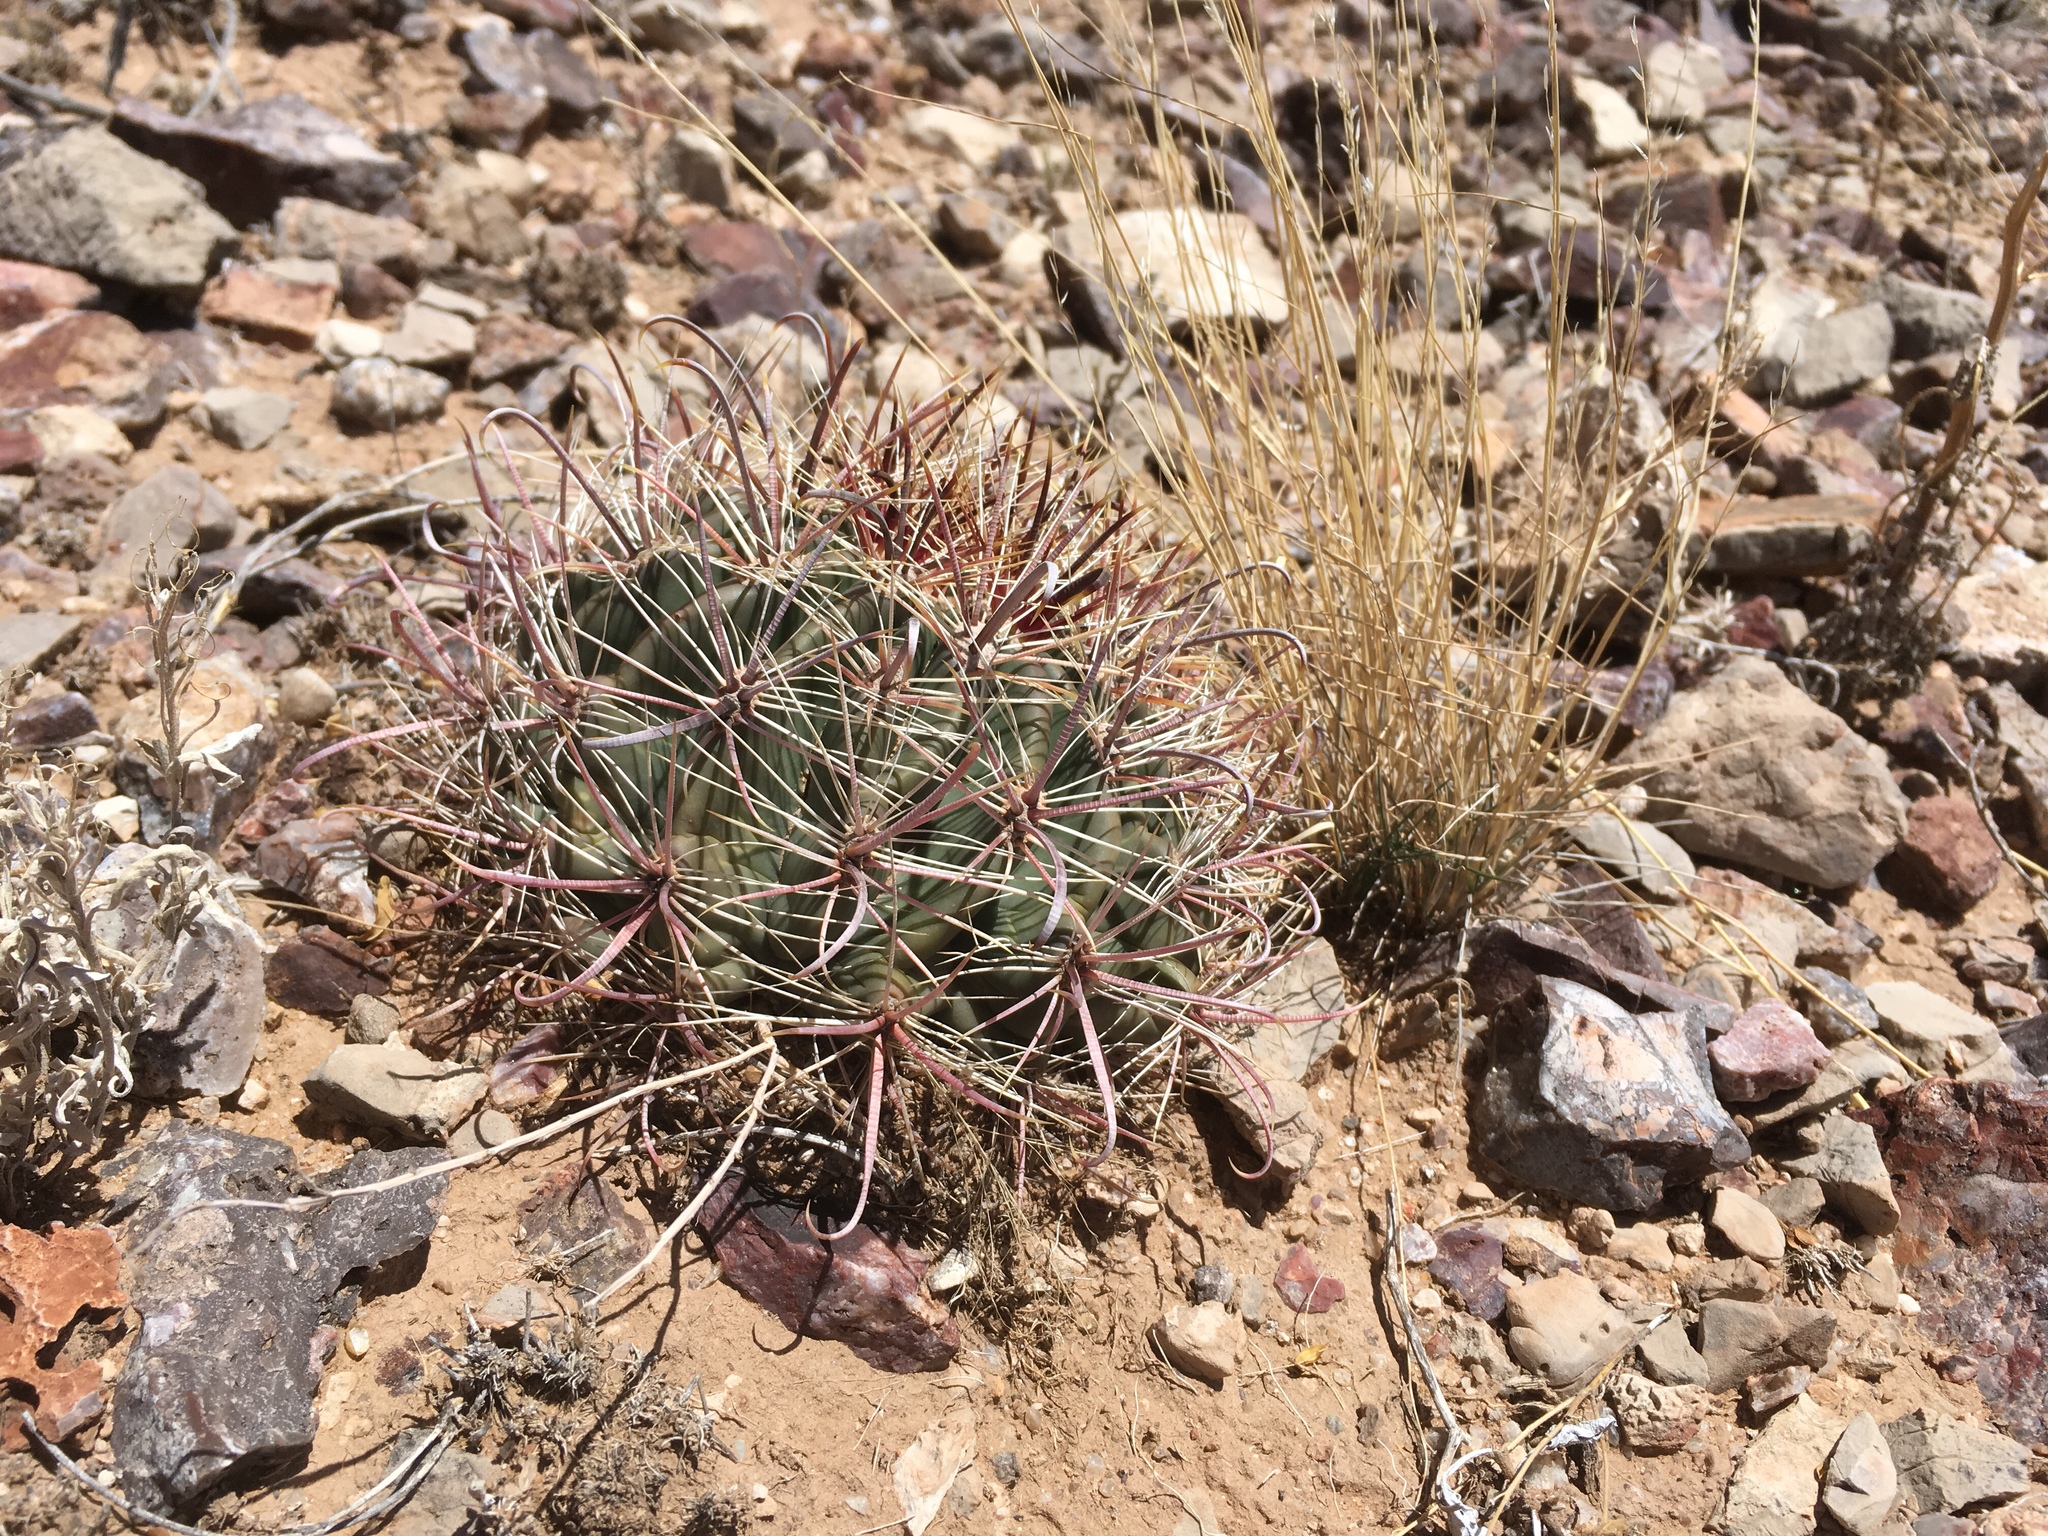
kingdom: Plantae
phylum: Tracheophyta
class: Magnoliopsida
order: Caryophyllales
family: Cactaceae
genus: Ferocactus
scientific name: Ferocactus wislizeni
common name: Candy barrel cactus
